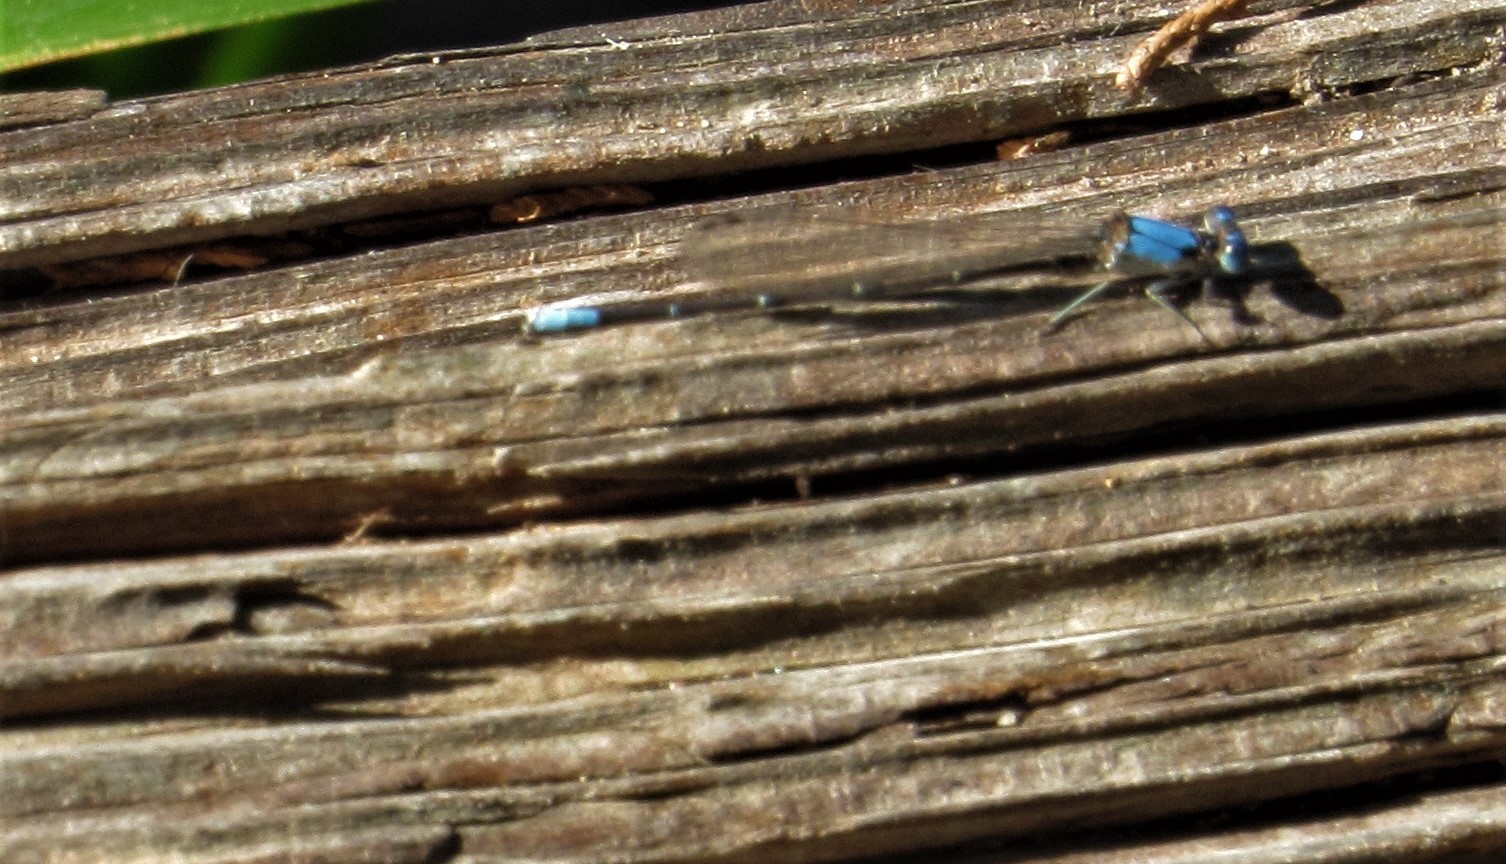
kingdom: Animalia
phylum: Arthropoda
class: Insecta
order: Odonata
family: Coenagrionidae
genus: Argia
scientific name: Argia apicalis
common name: Blue-fronted dancer
